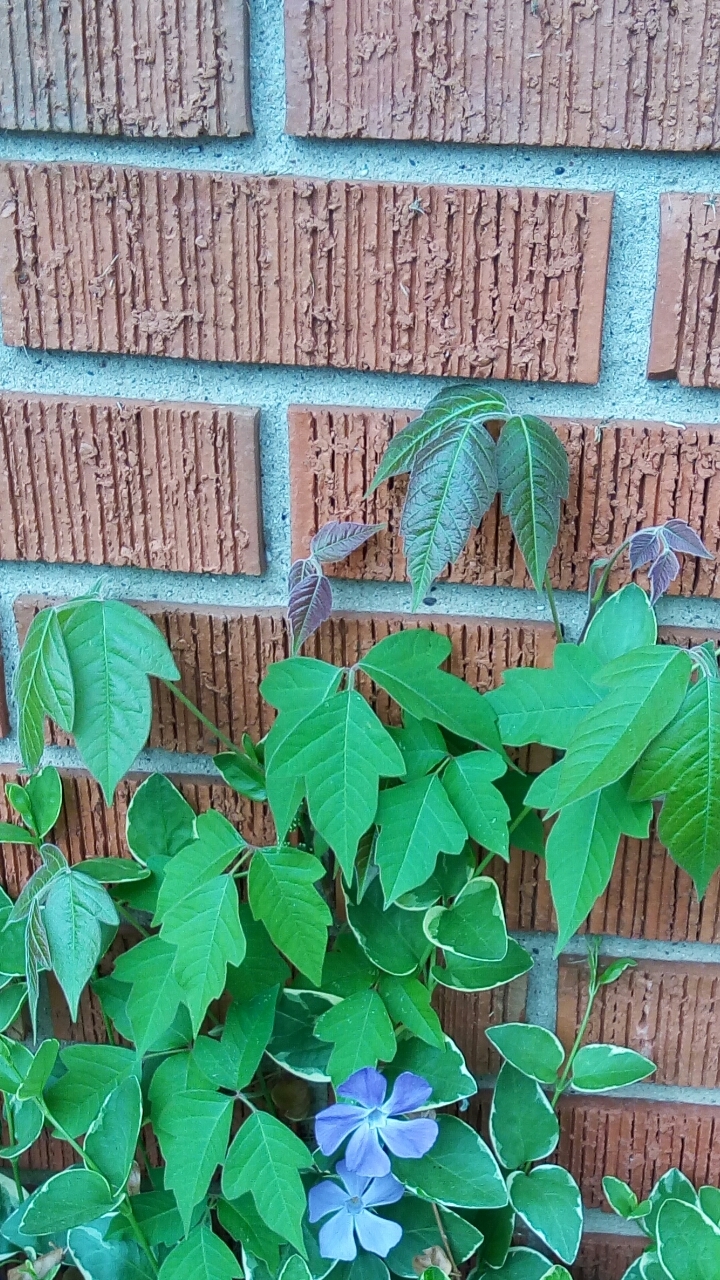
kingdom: Plantae
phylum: Tracheophyta
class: Magnoliopsida
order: Sapindales
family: Anacardiaceae
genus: Toxicodendron
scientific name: Toxicodendron radicans
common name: Poison ivy
